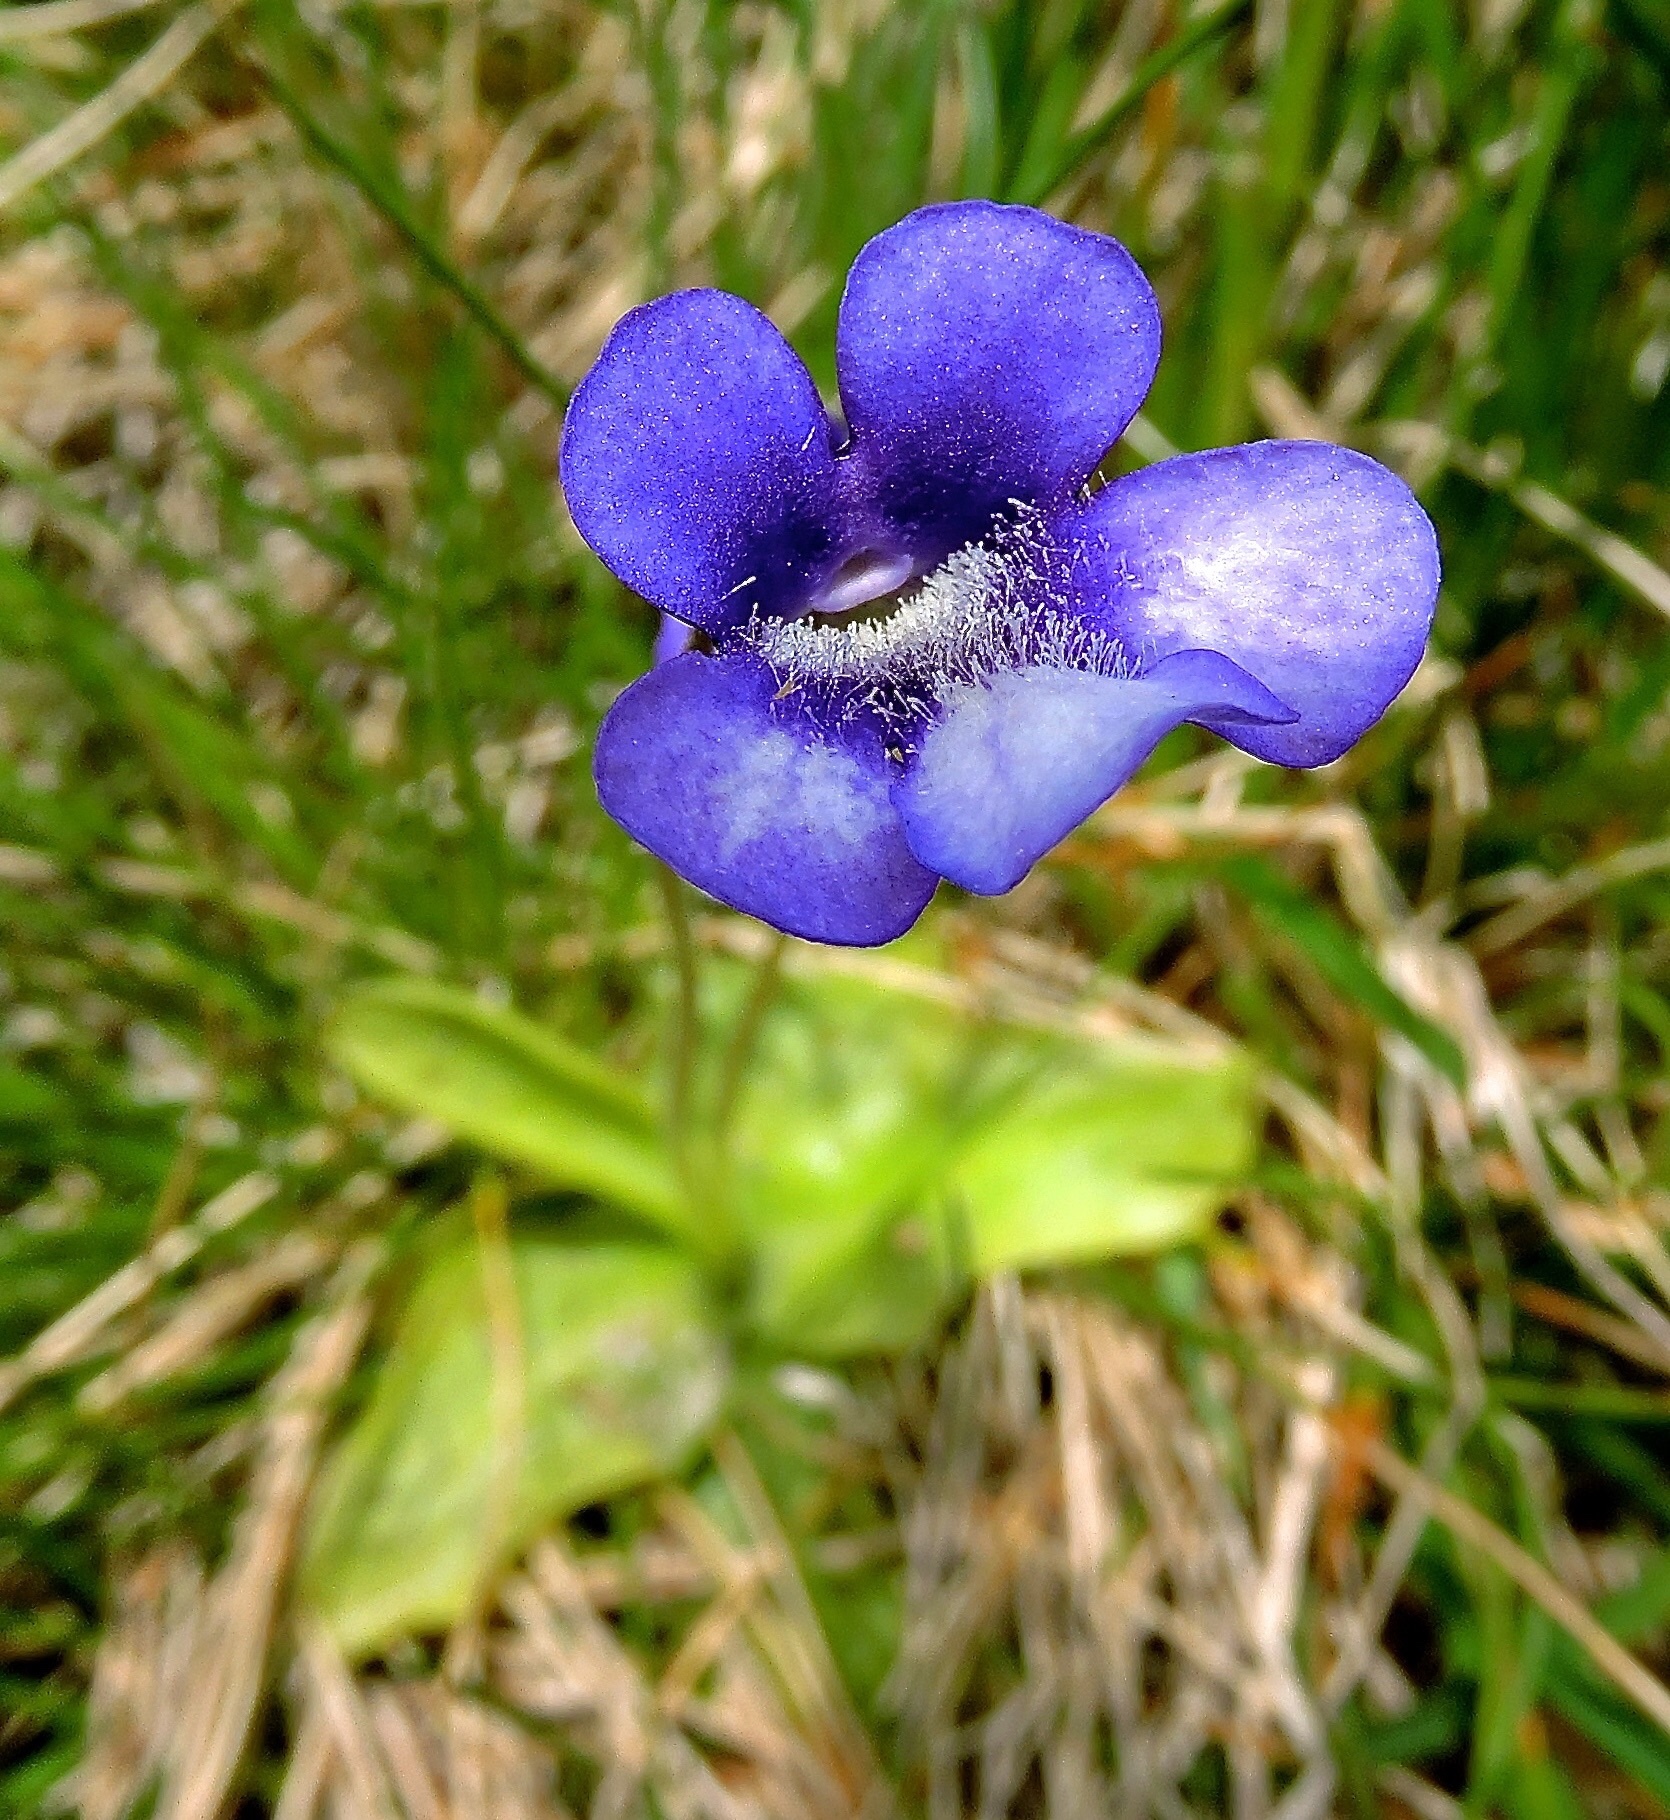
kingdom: Plantae
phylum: Tracheophyta
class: Magnoliopsida
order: Lamiales
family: Lentibulariaceae
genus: Pinguicula
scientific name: Pinguicula leptoceras
